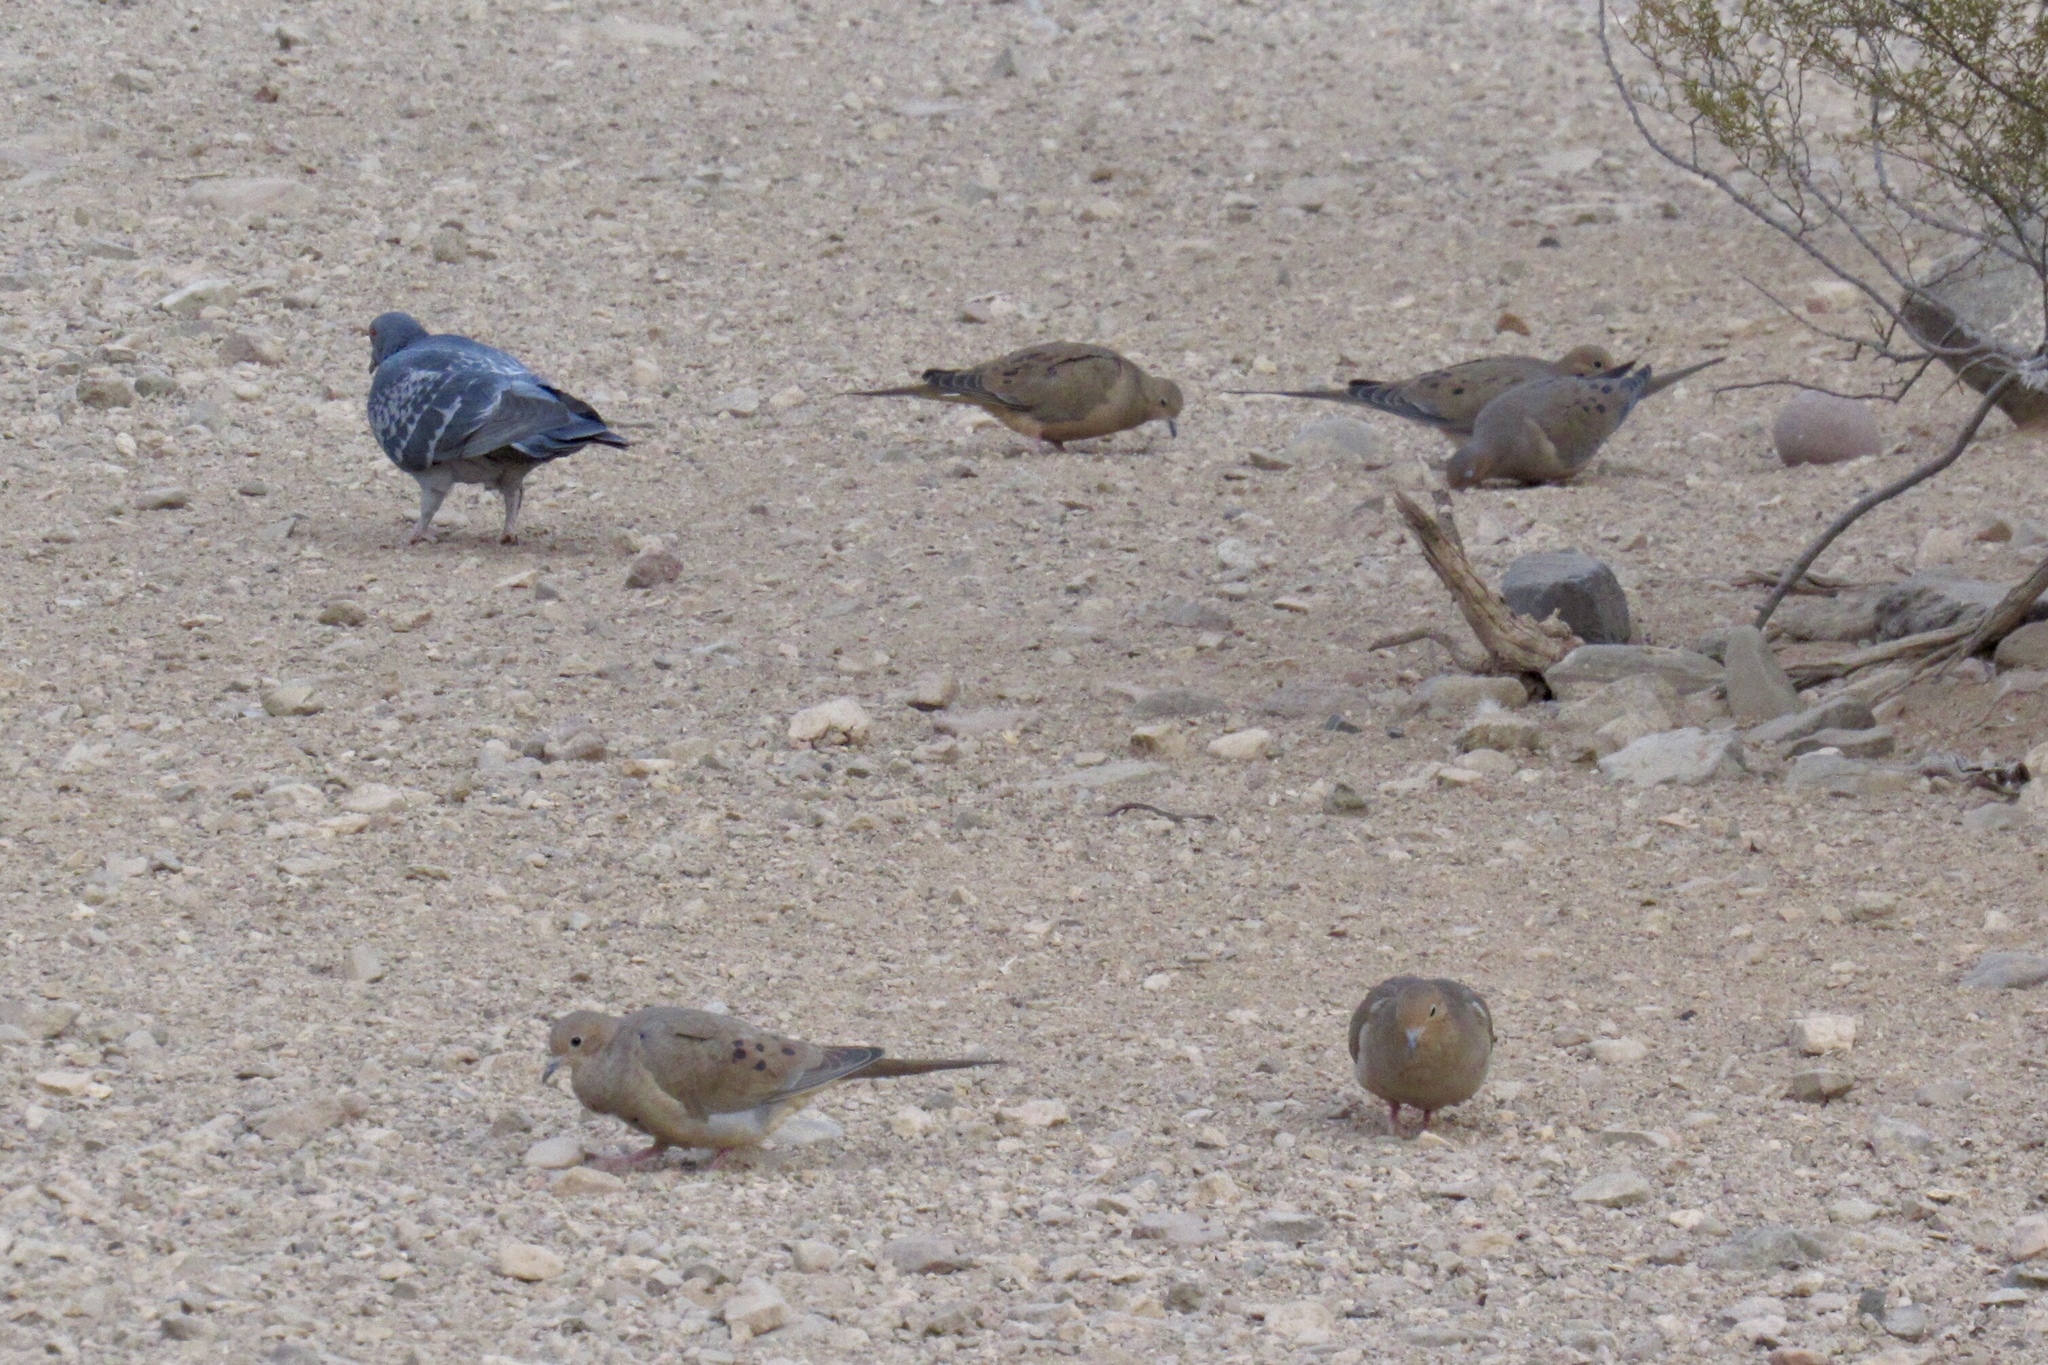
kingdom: Animalia
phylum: Chordata
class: Aves
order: Columbiformes
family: Columbidae
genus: Zenaida
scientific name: Zenaida macroura
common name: Mourning dove
